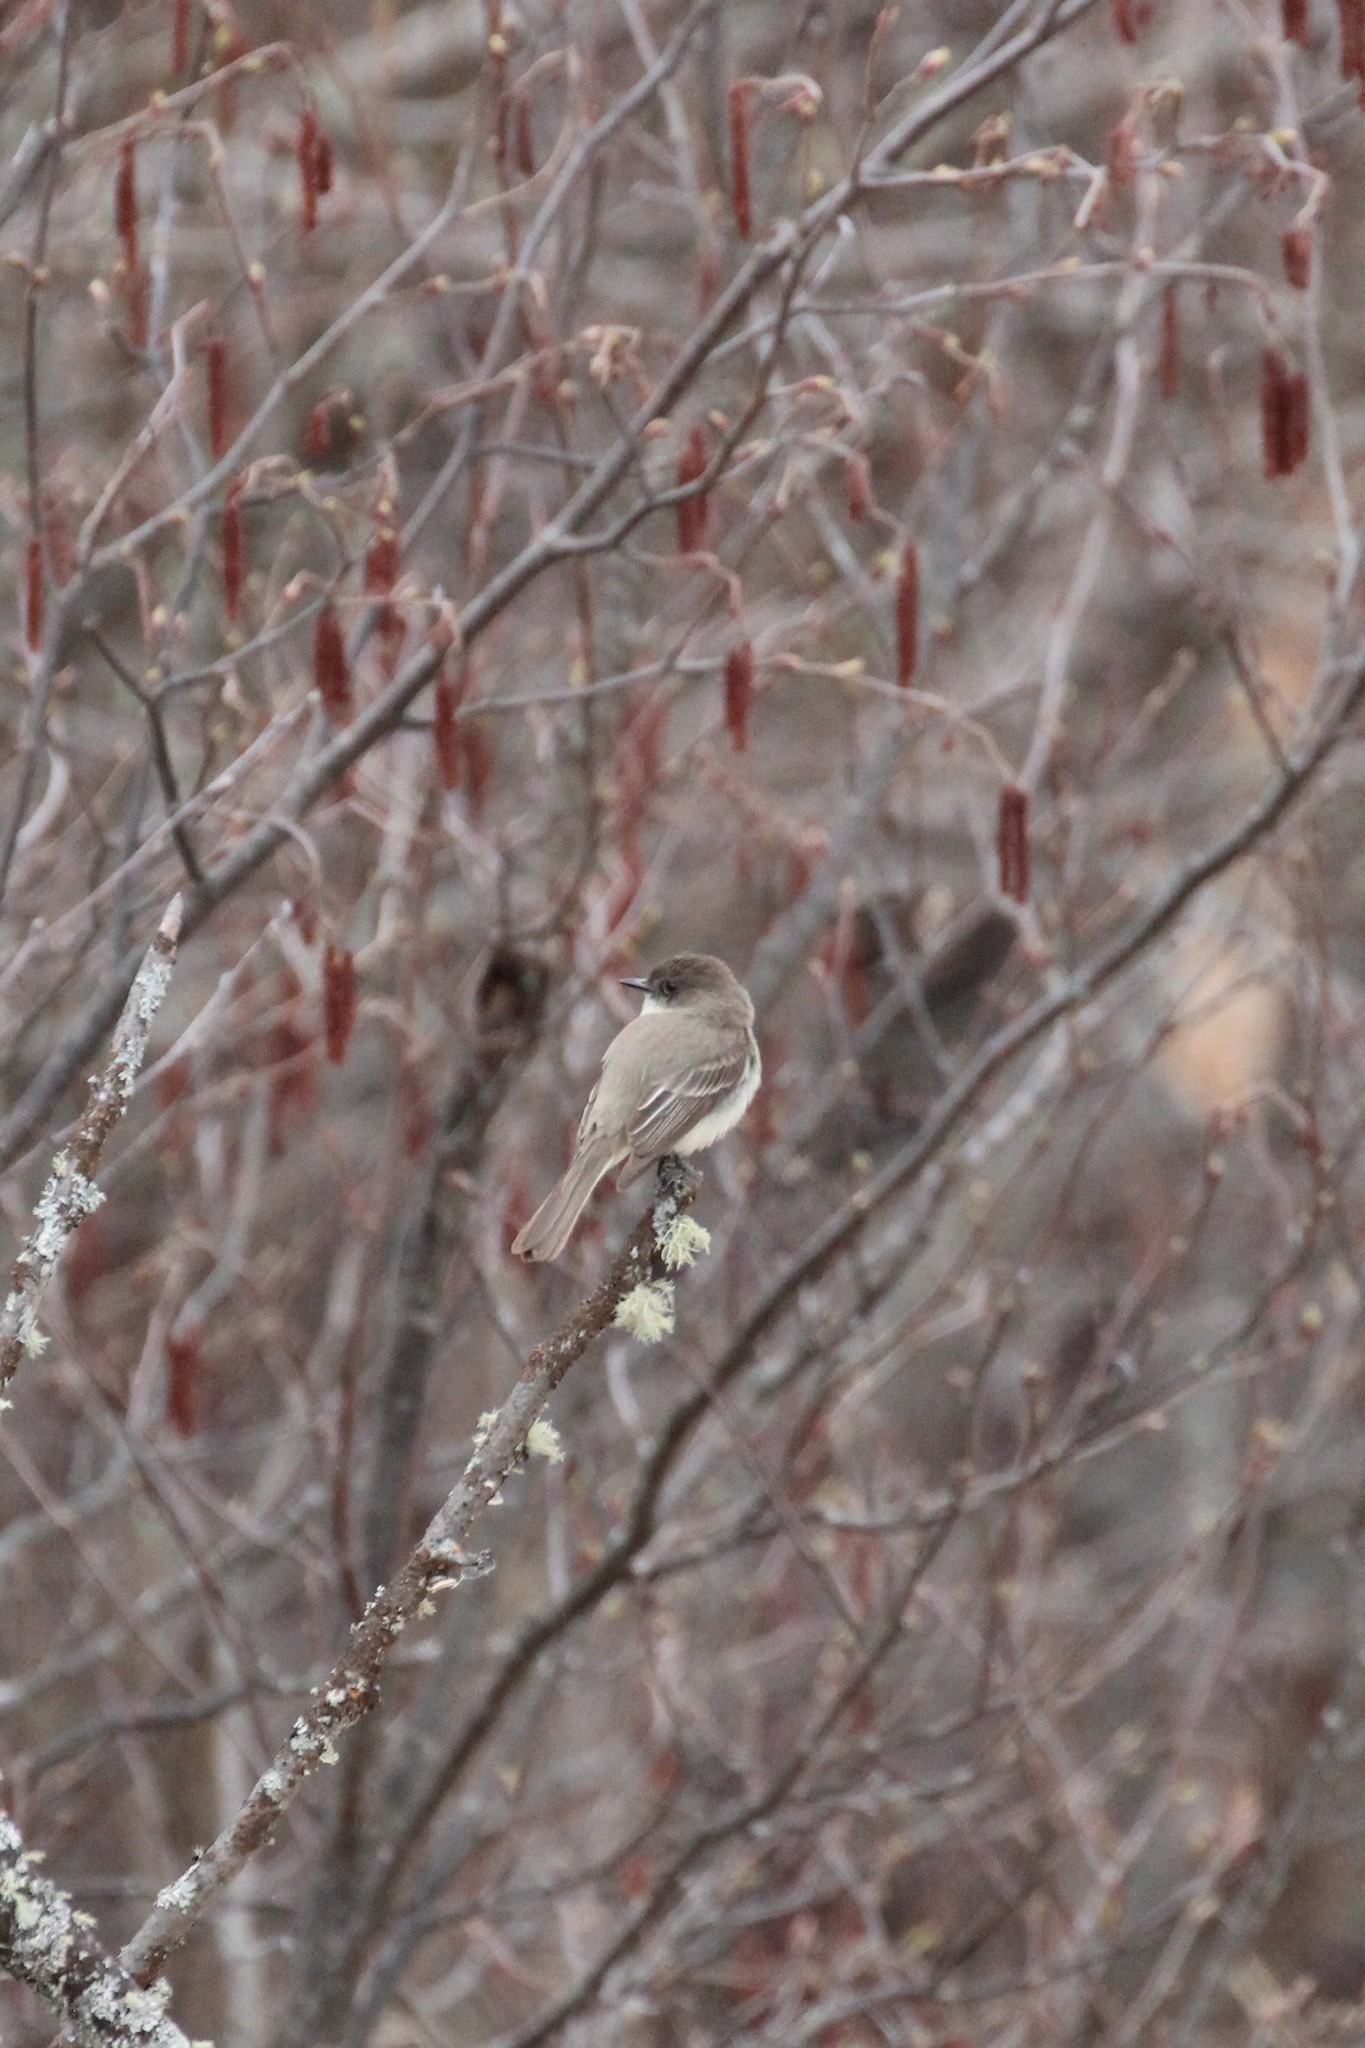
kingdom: Animalia
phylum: Chordata
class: Aves
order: Passeriformes
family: Tyrannidae
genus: Sayornis
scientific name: Sayornis phoebe
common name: Eastern phoebe
